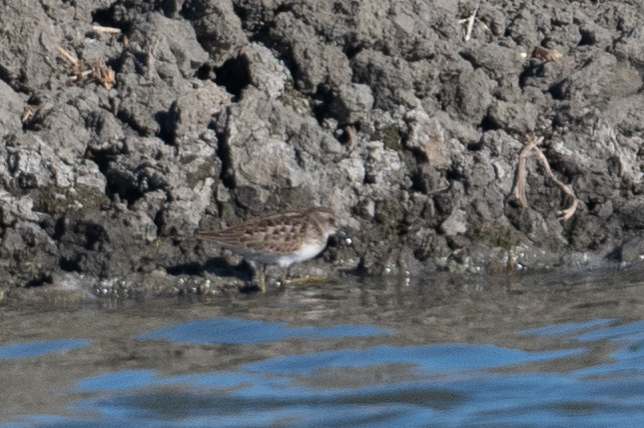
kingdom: Animalia
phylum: Chordata
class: Aves
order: Charadriiformes
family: Scolopacidae
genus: Calidris
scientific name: Calidris minutilla
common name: Least sandpiper
